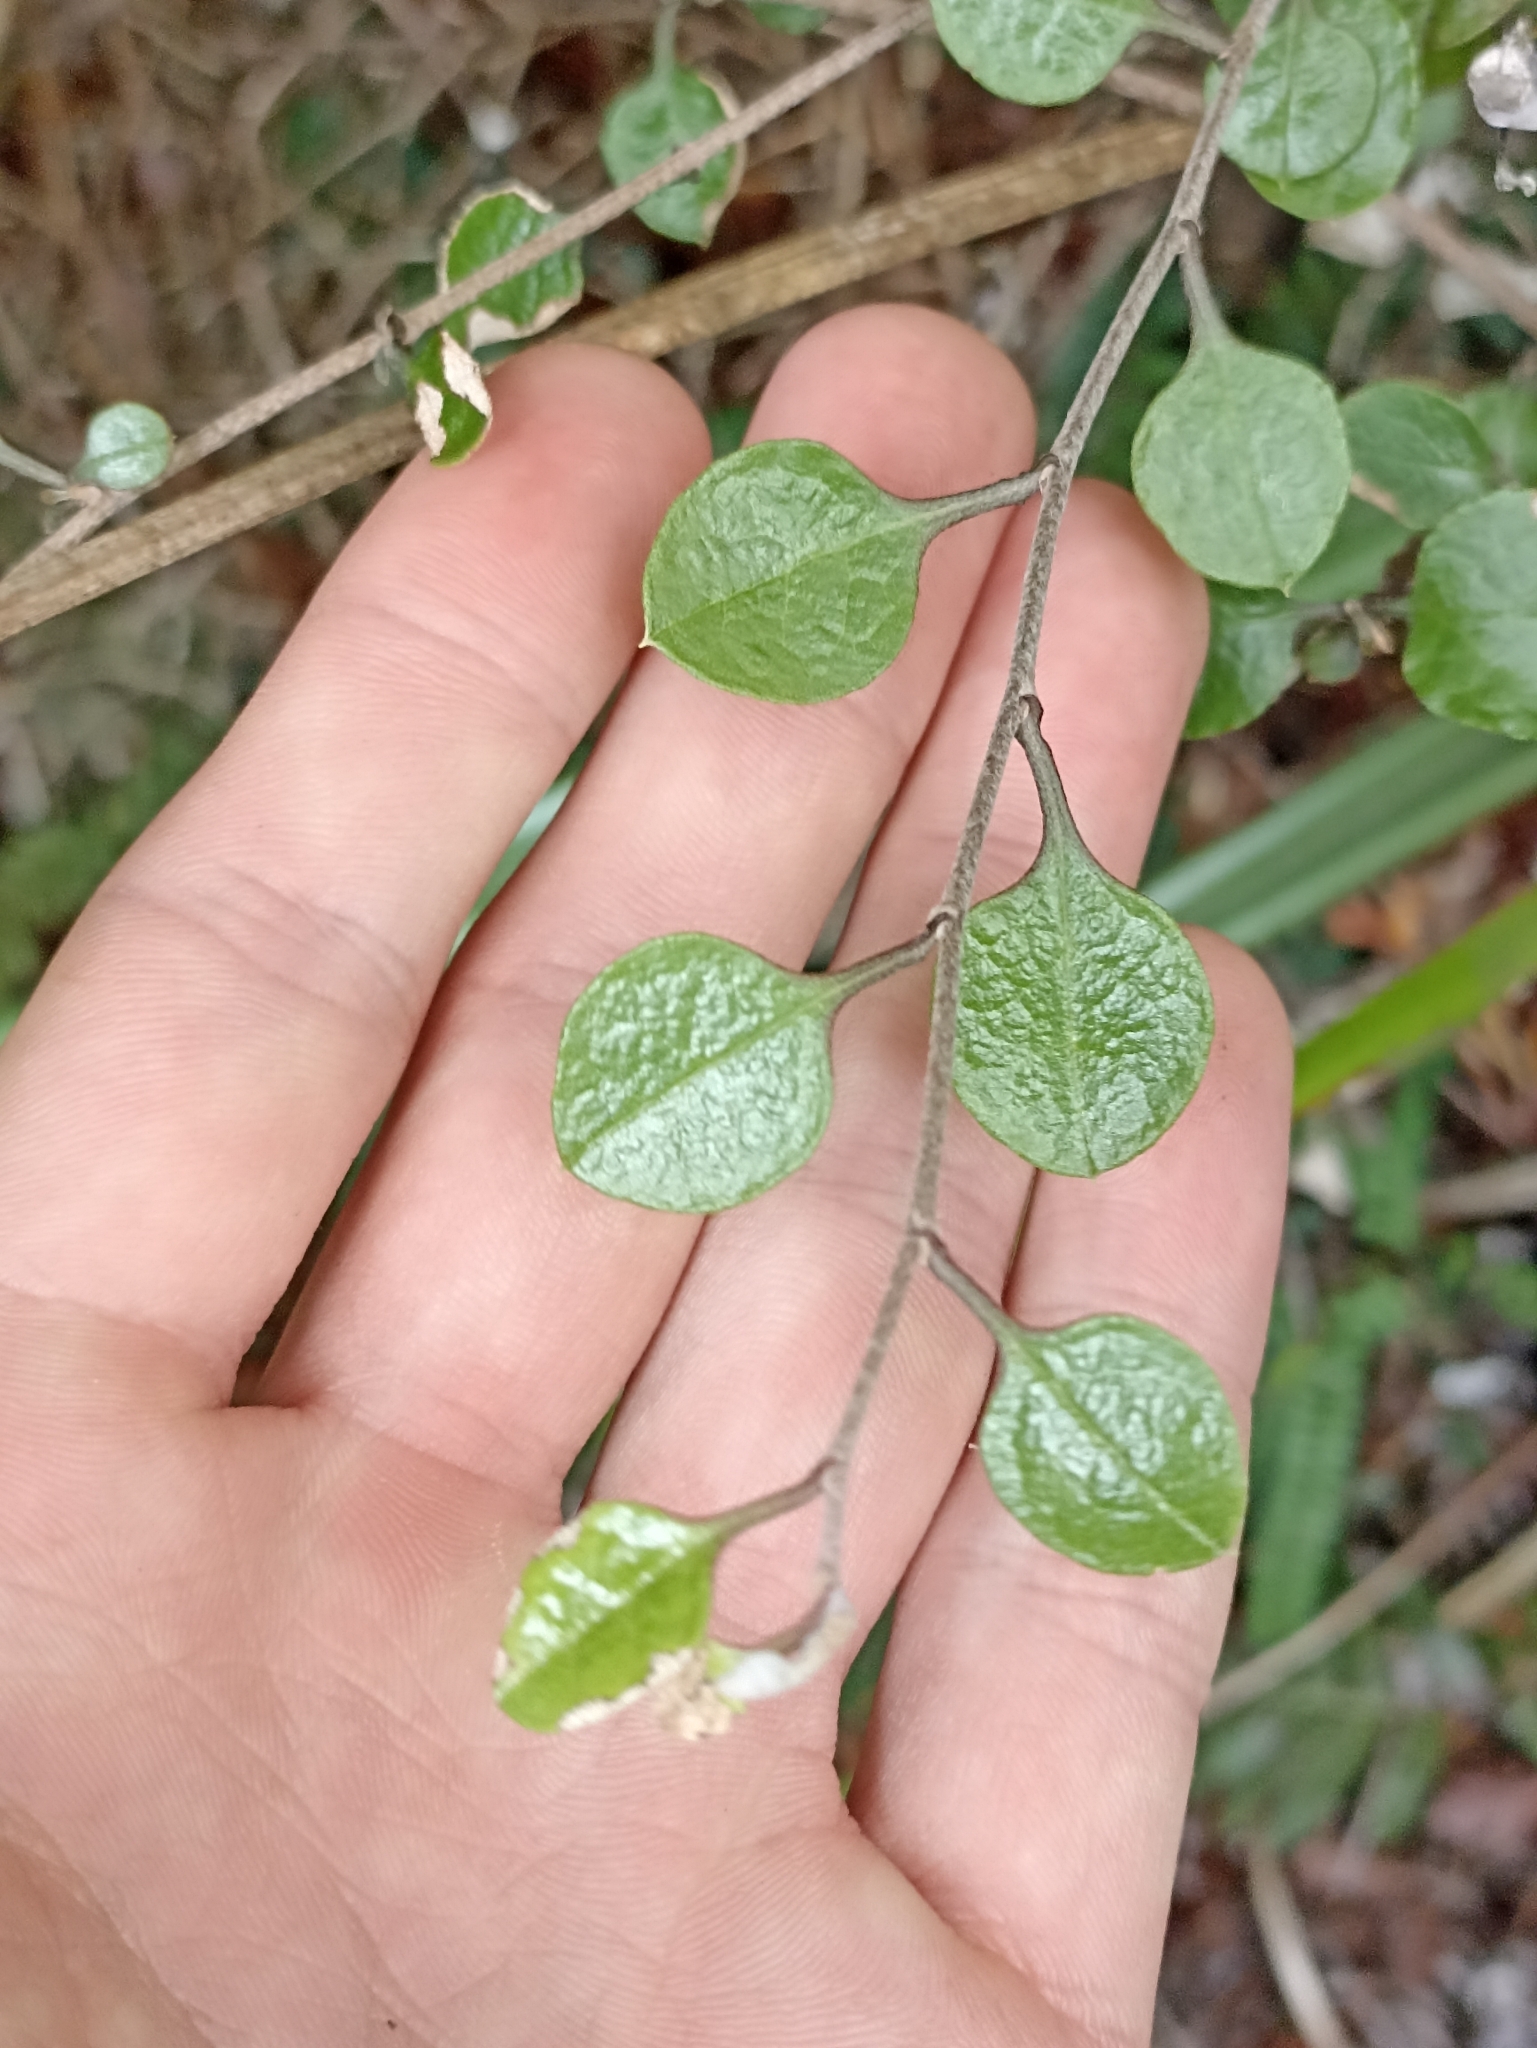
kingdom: Plantae
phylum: Tracheophyta
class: Magnoliopsida
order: Asterales
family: Asteraceae
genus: Ozothamnus
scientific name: Ozothamnus glomeratus
